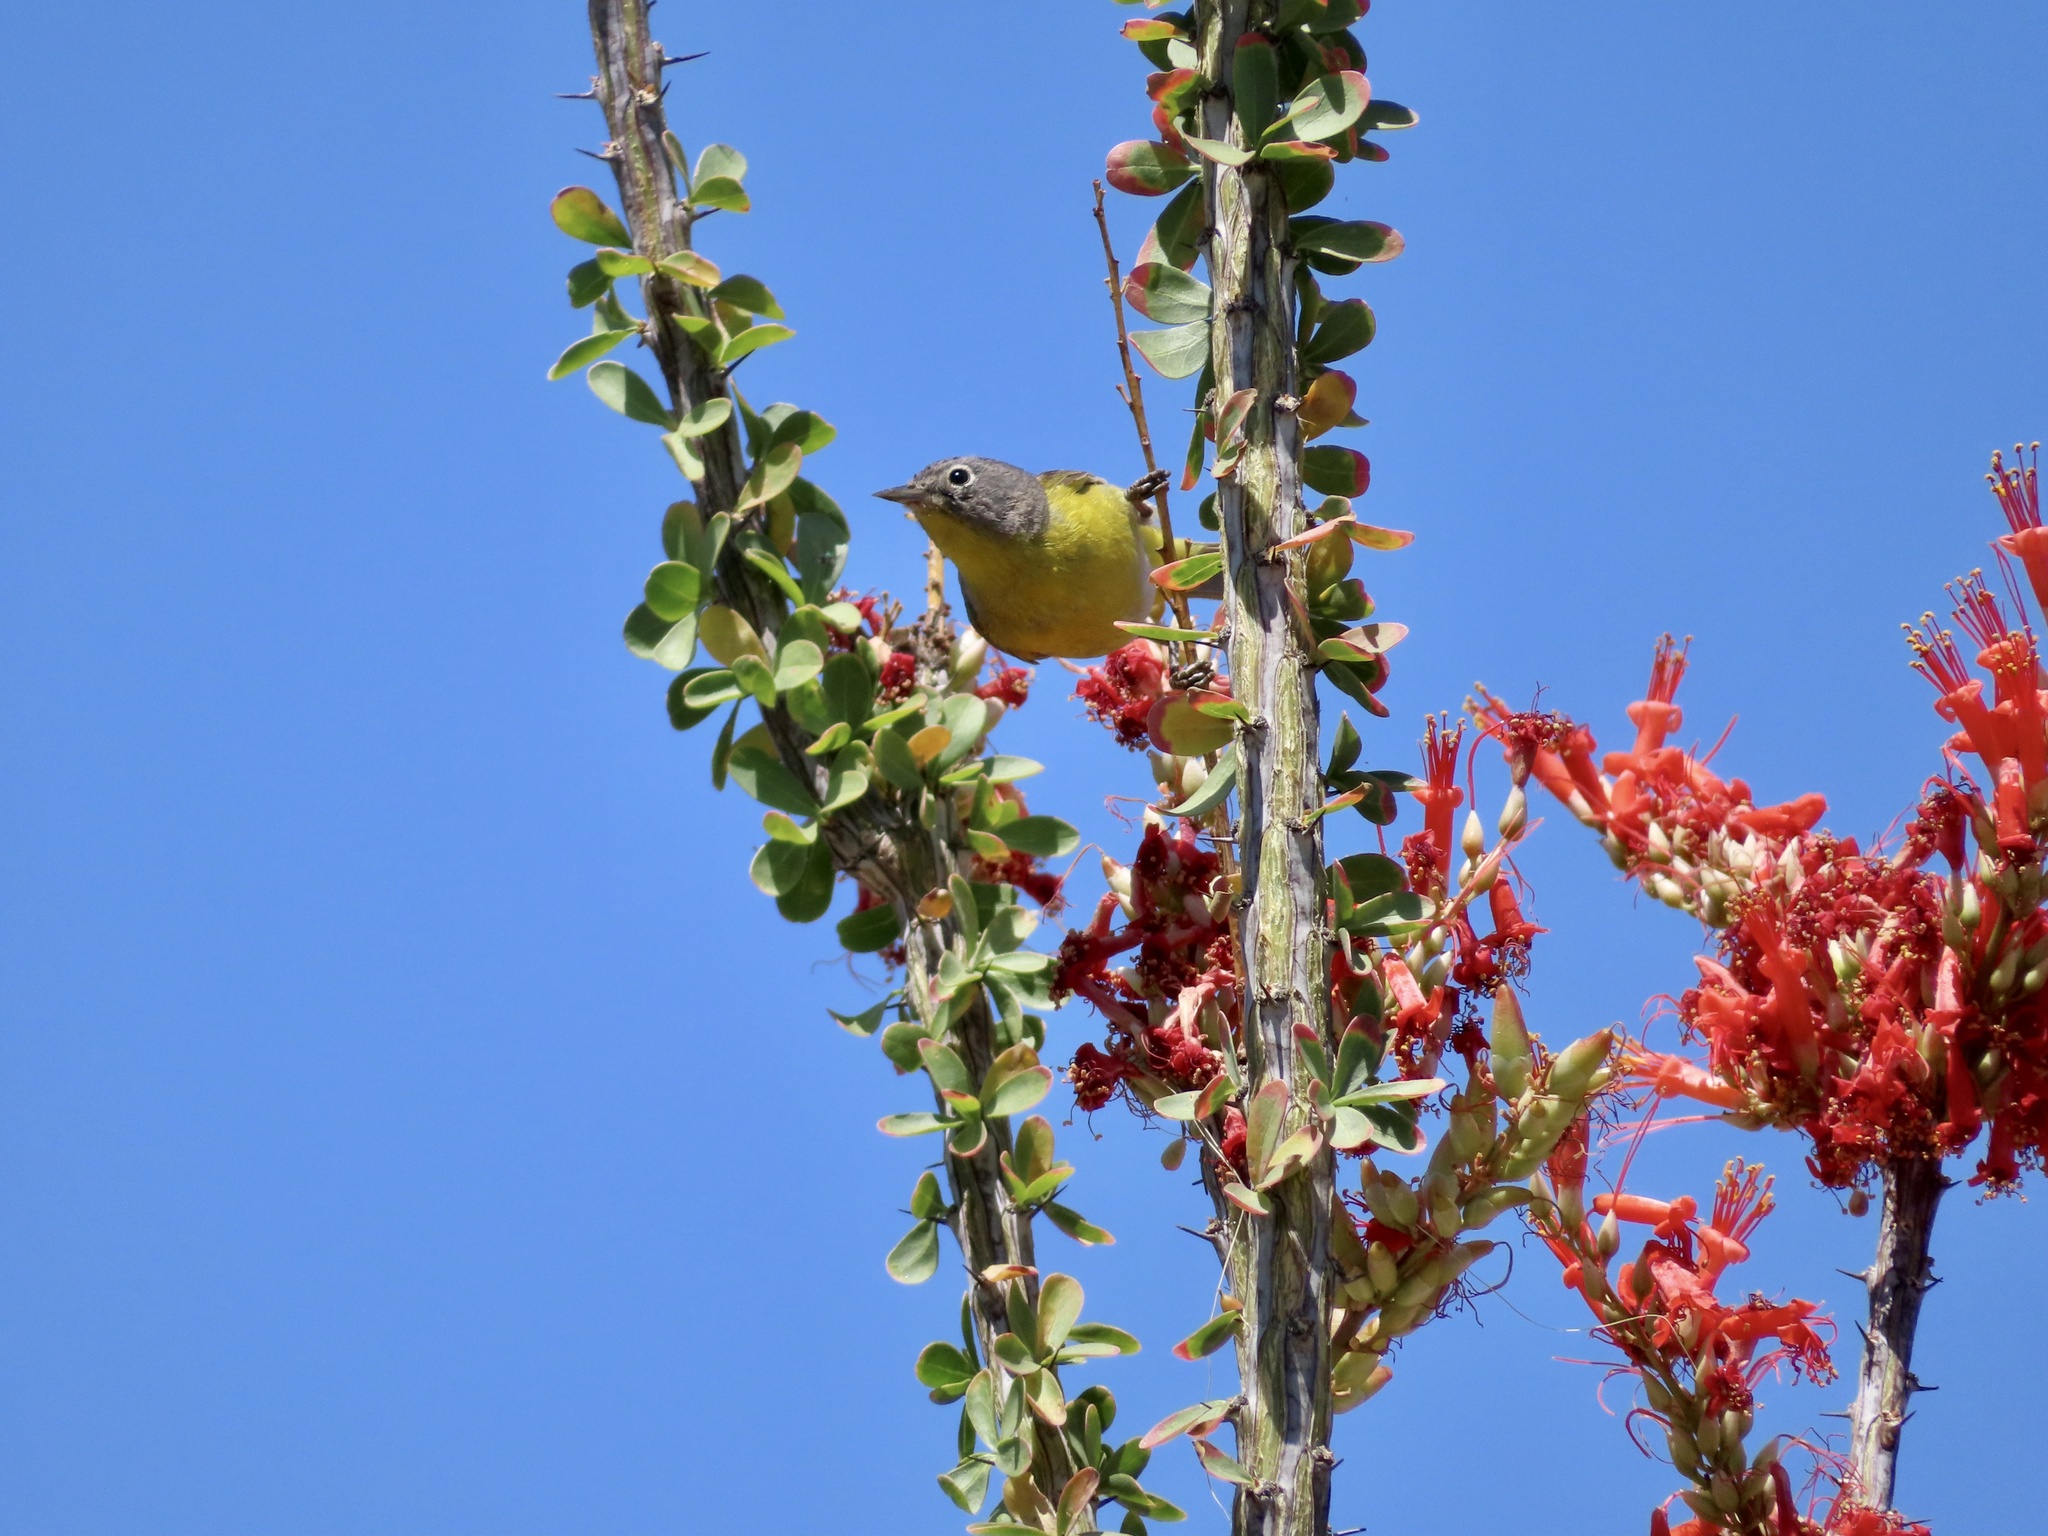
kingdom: Animalia
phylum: Chordata
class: Aves
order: Passeriformes
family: Parulidae
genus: Leiothlypis
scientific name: Leiothlypis ruficapilla
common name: Nashville warbler
